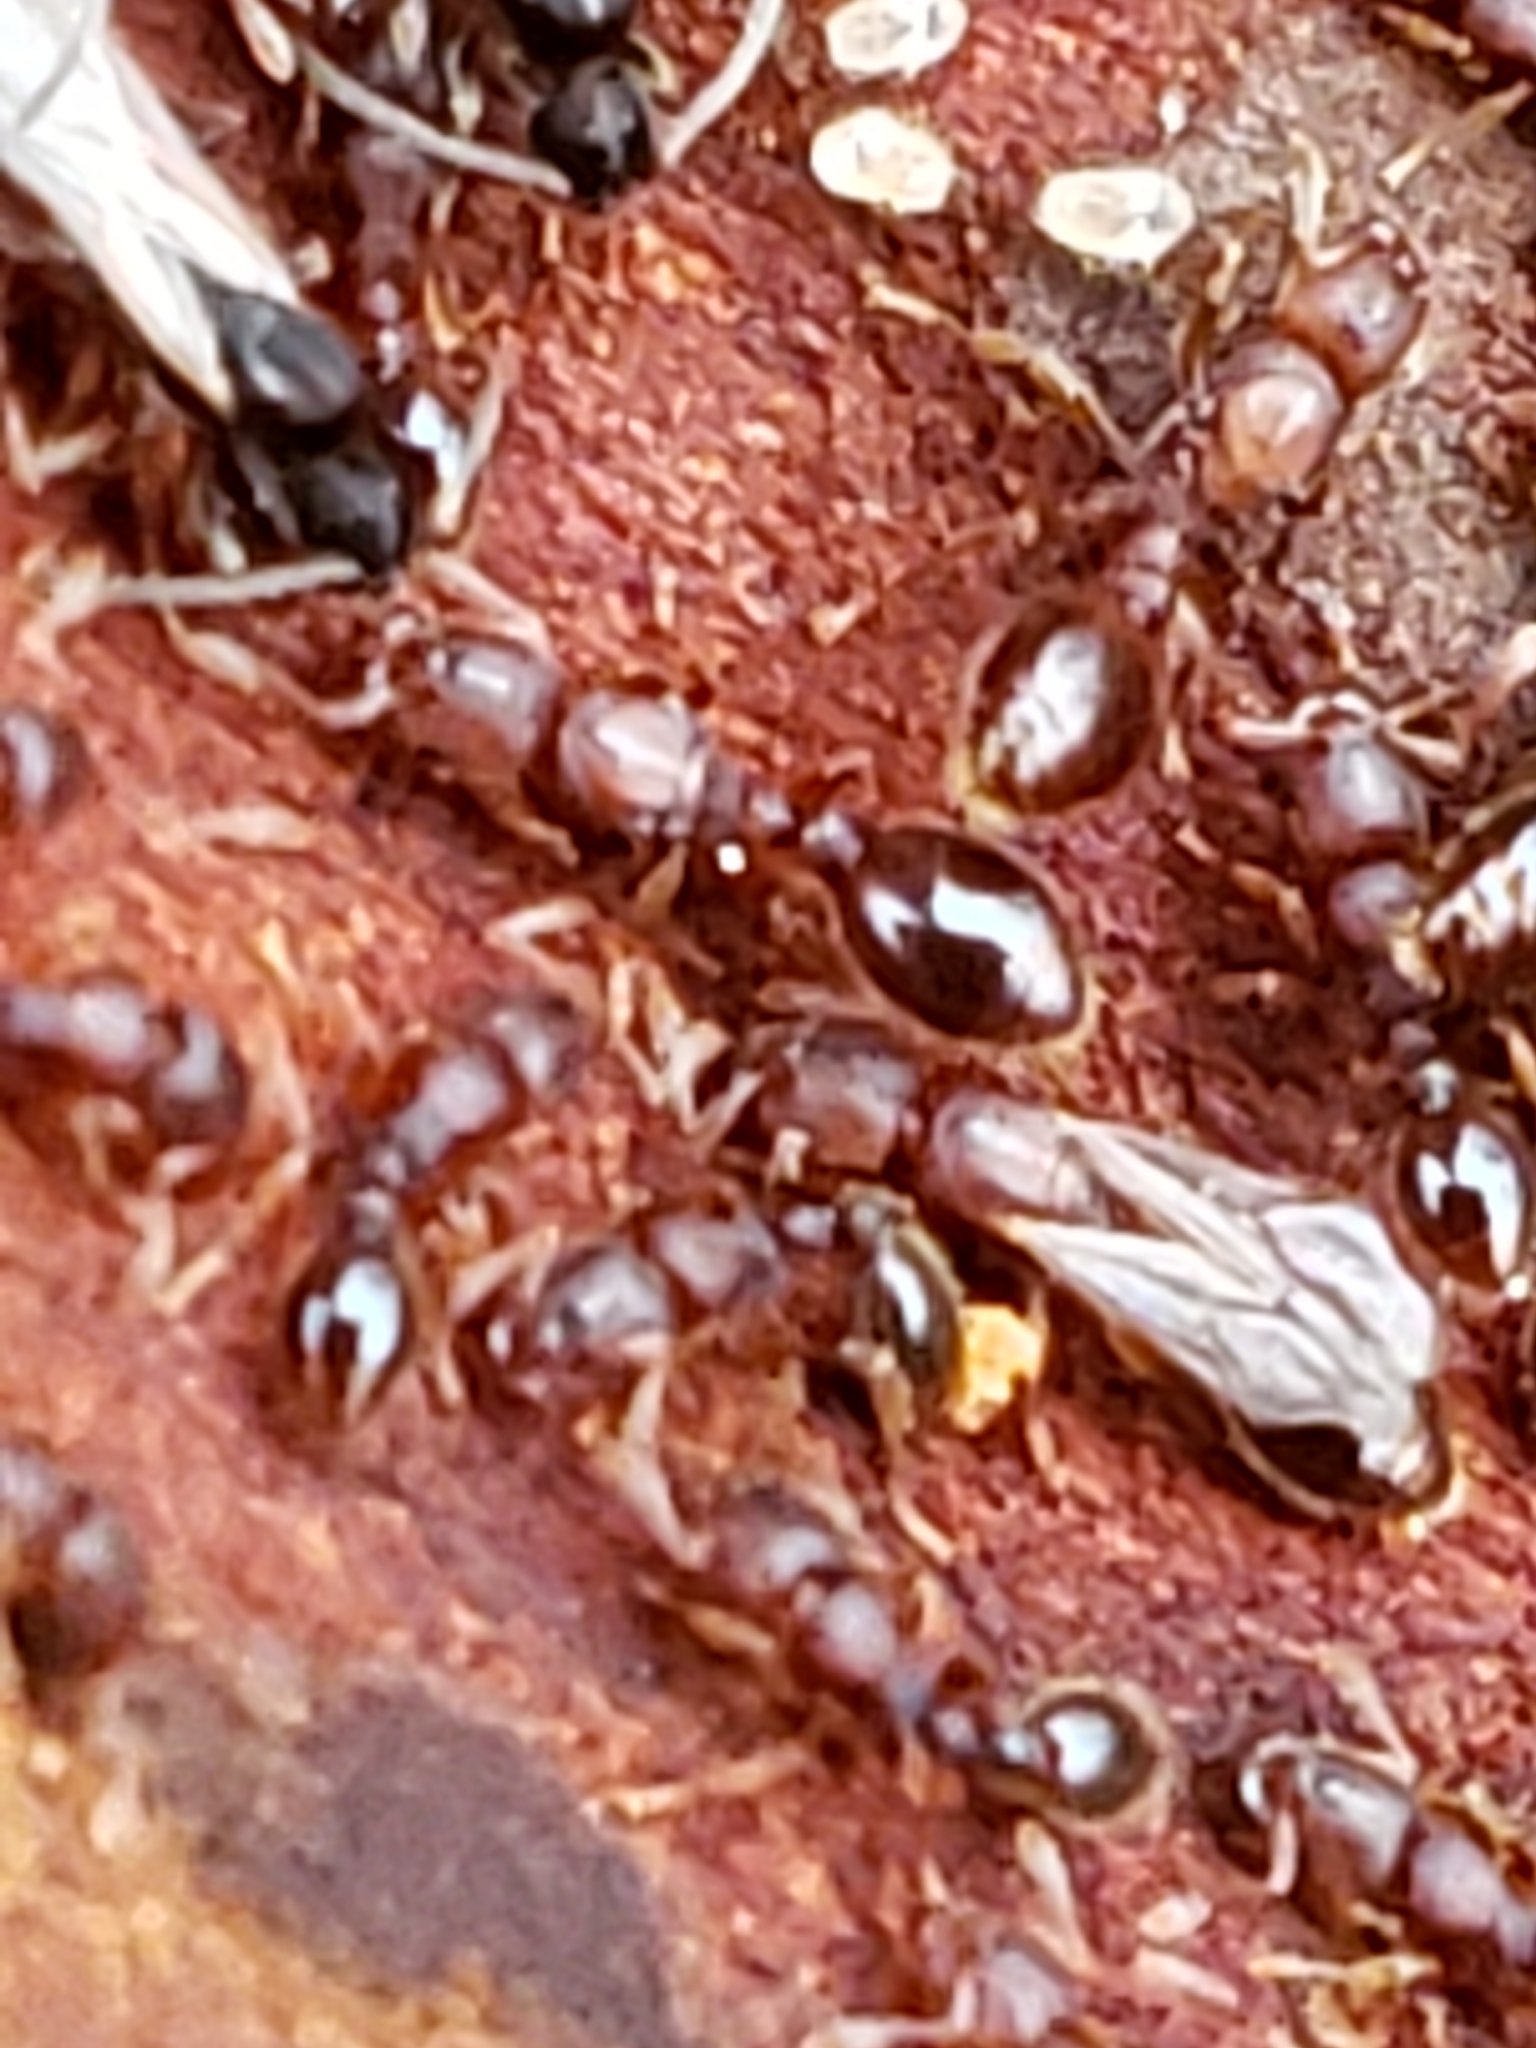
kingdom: Animalia
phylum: Arthropoda
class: Insecta
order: Hymenoptera
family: Formicidae
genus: Vollenhovia
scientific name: Vollenhovia emeryi
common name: Ant
